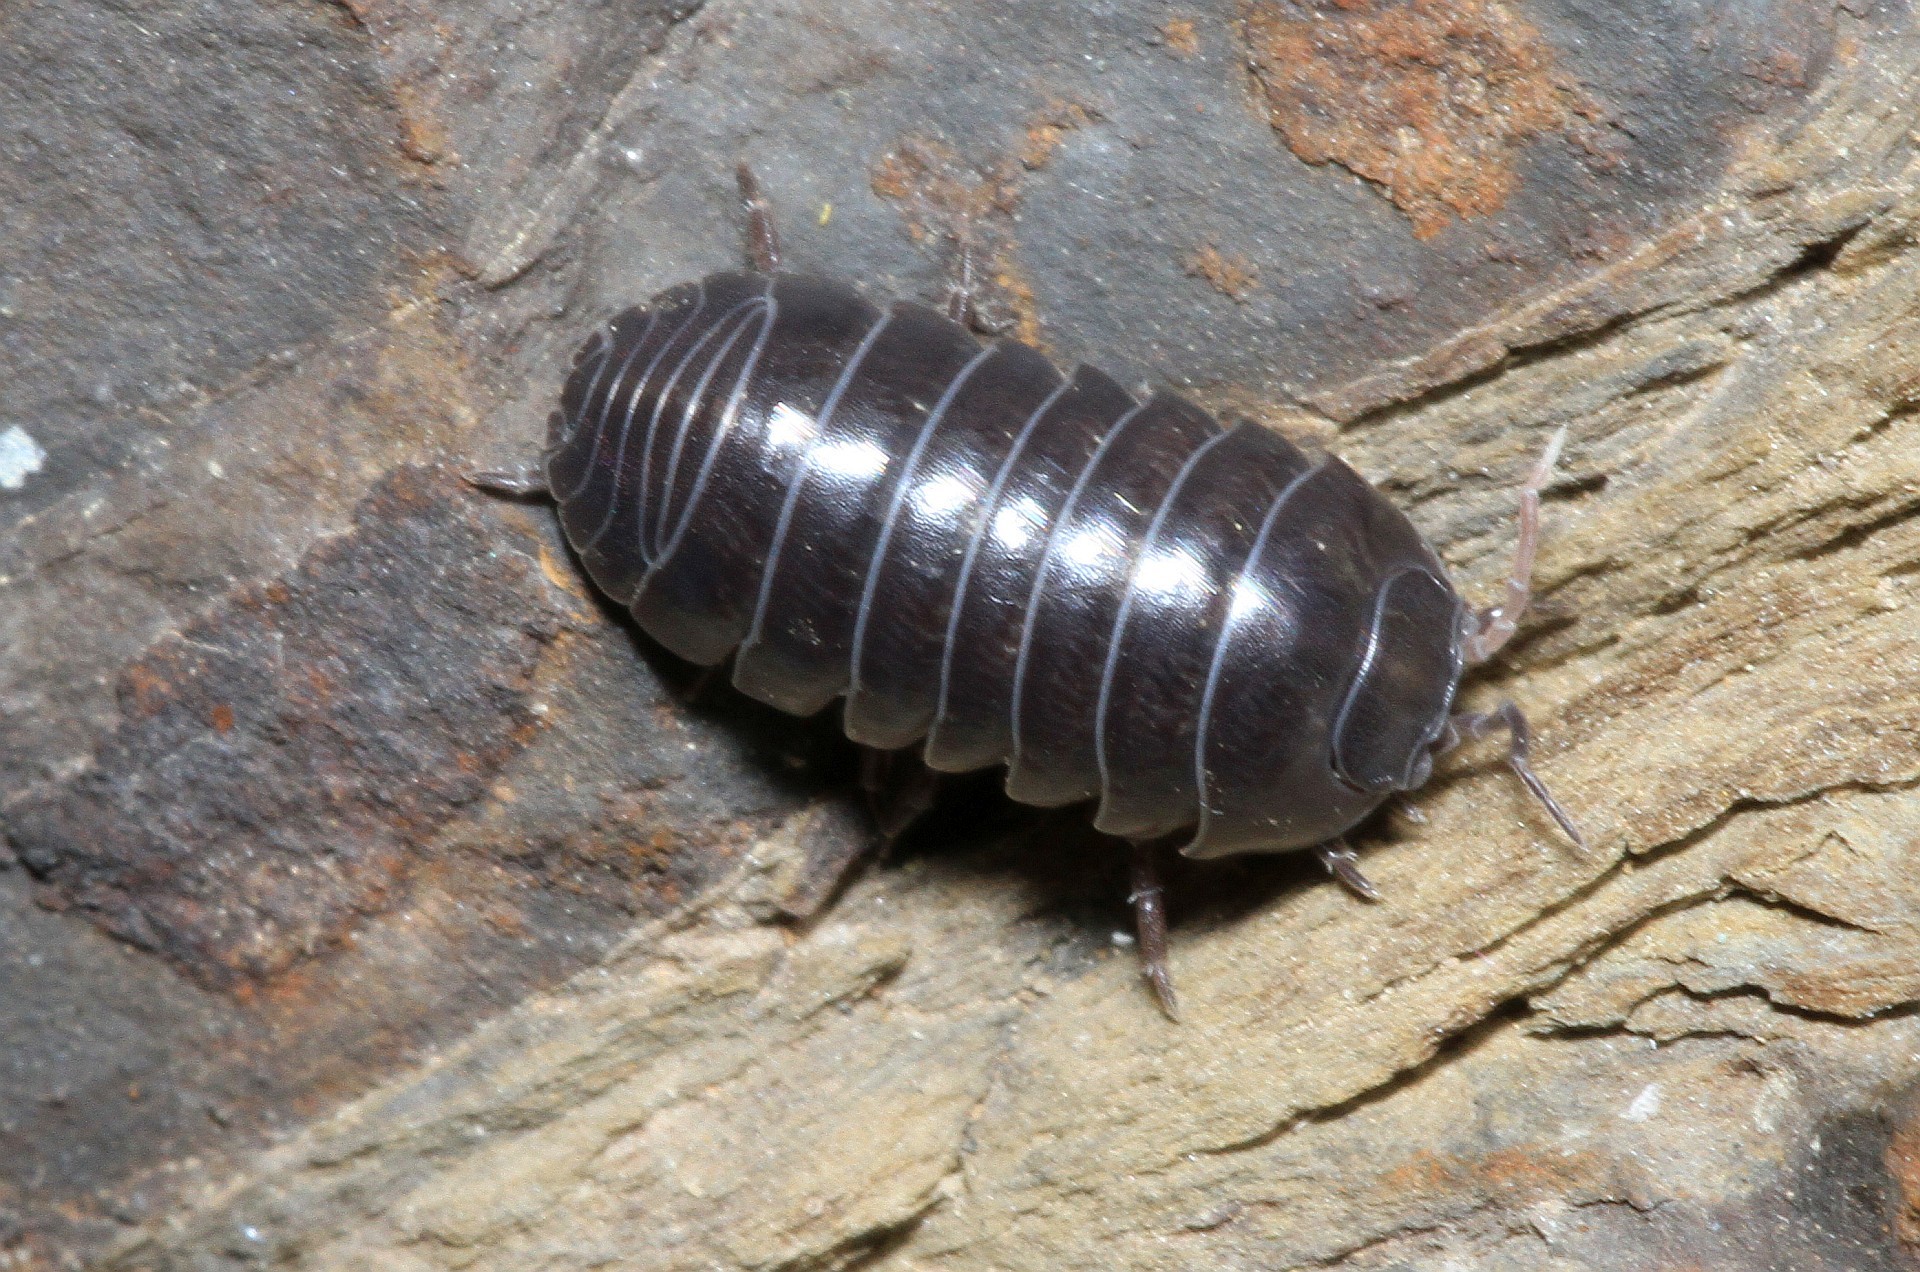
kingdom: Animalia
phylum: Arthropoda
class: Malacostraca
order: Isopoda
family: Armadillidiidae
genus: Armadillidium
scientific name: Armadillidium vulgare
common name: Common pill woodlouse
